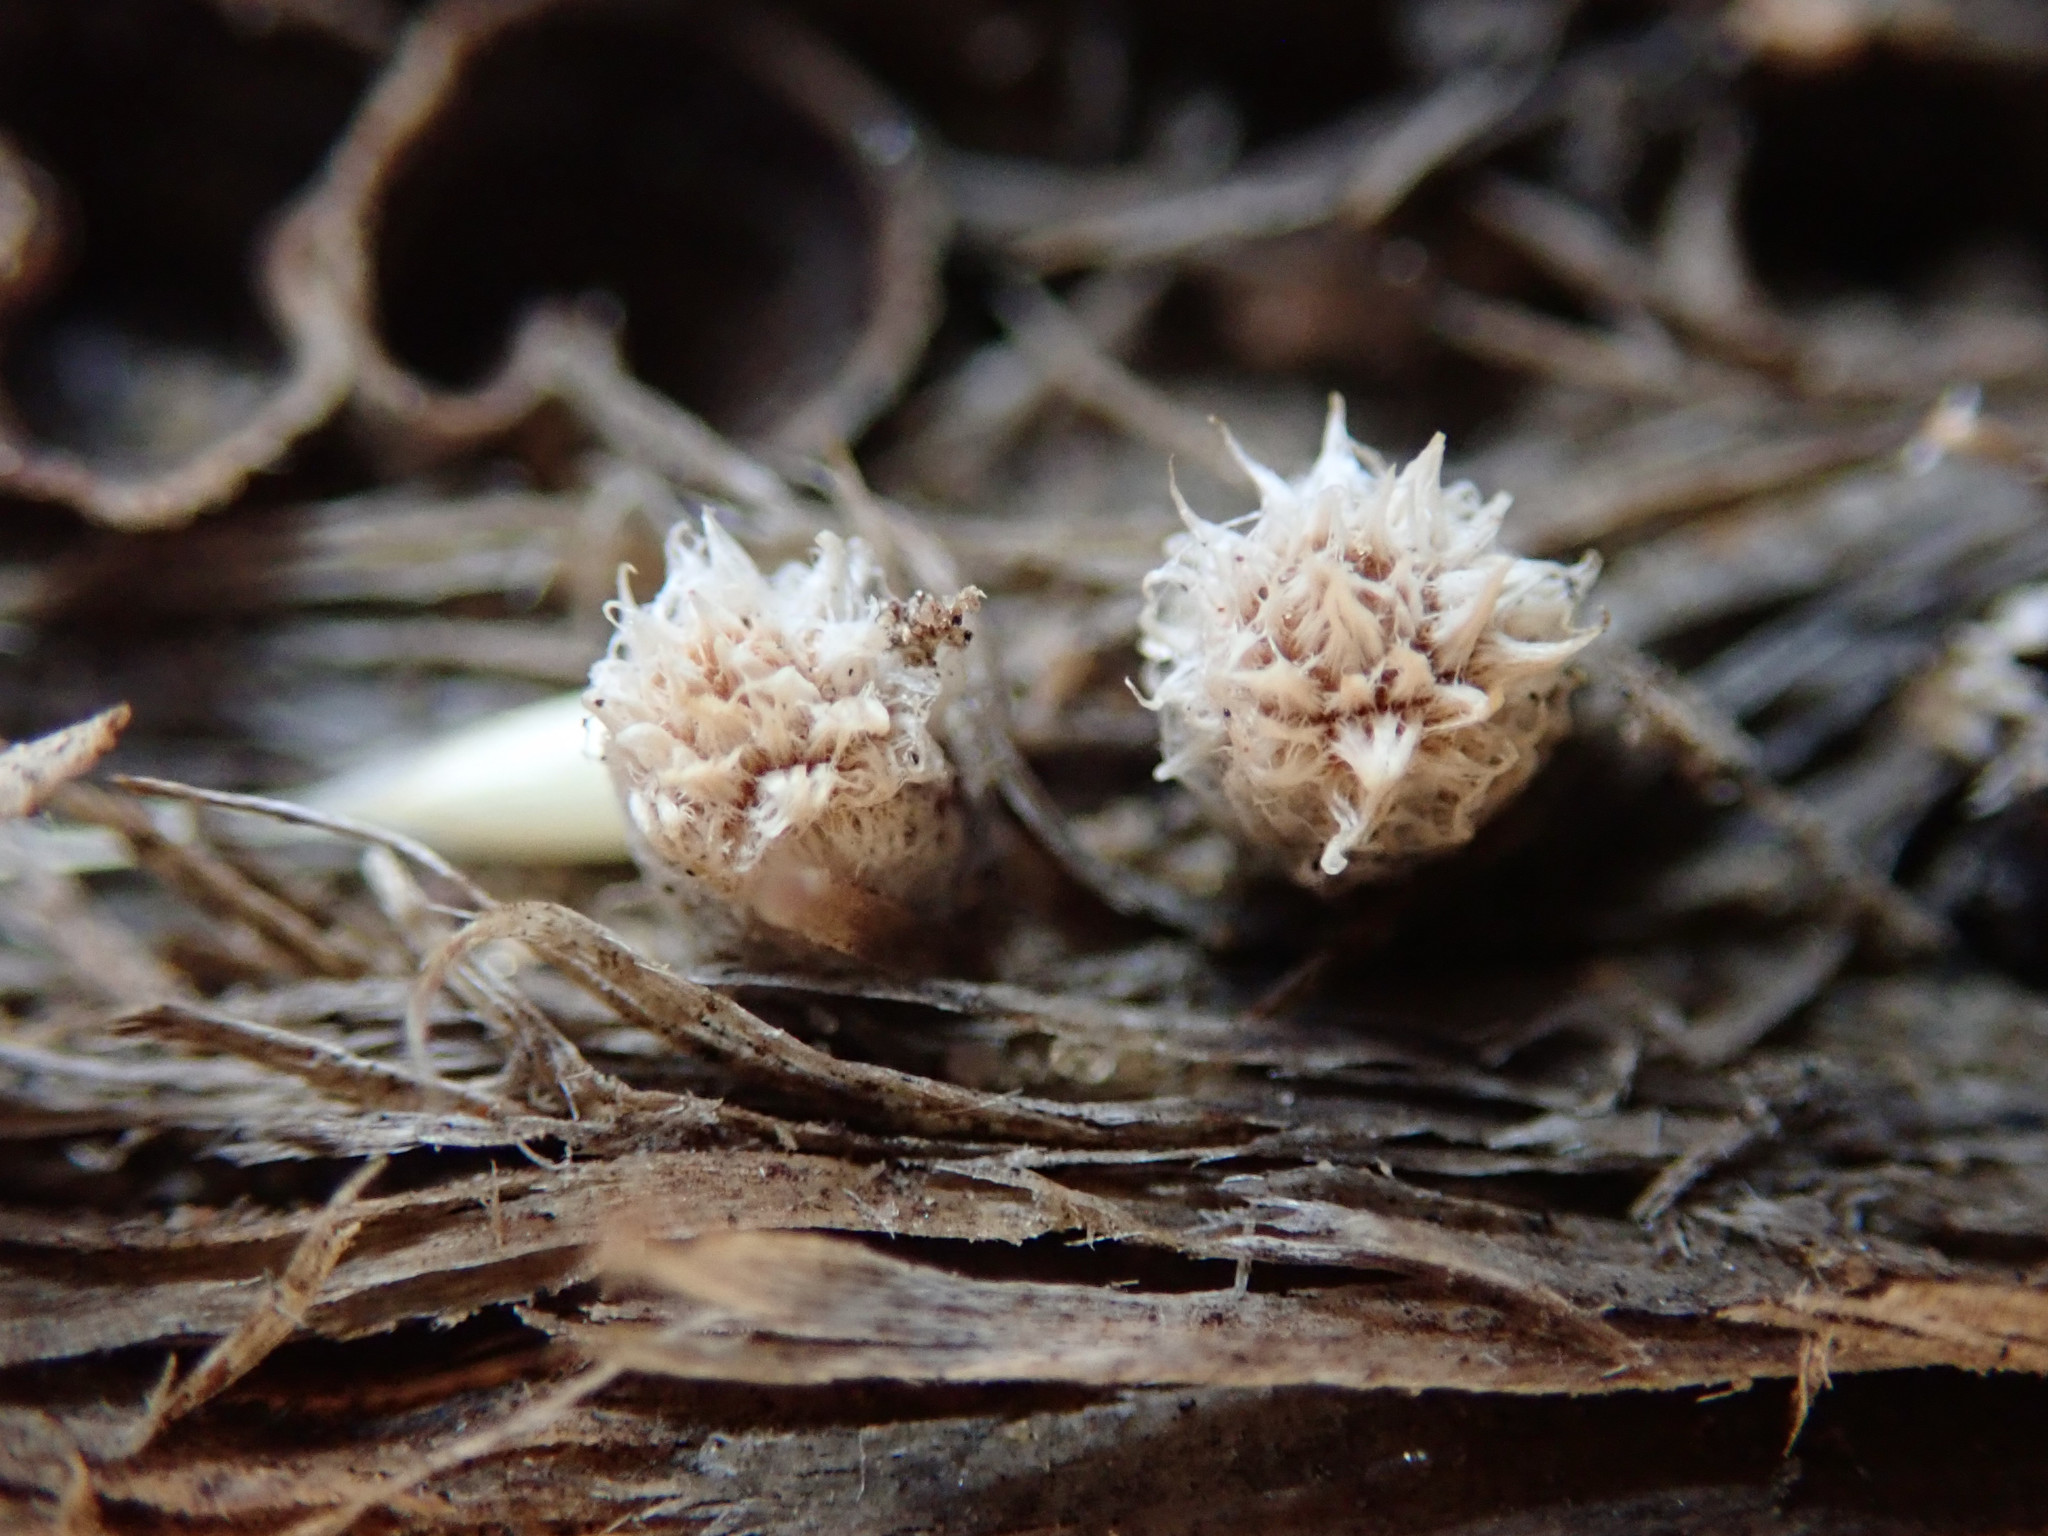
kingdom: Fungi
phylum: Basidiomycota
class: Agaricomycetes
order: Agaricales
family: Agaricaceae
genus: Cyathus
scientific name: Cyathus stercoreus
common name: Dung bird's nest
